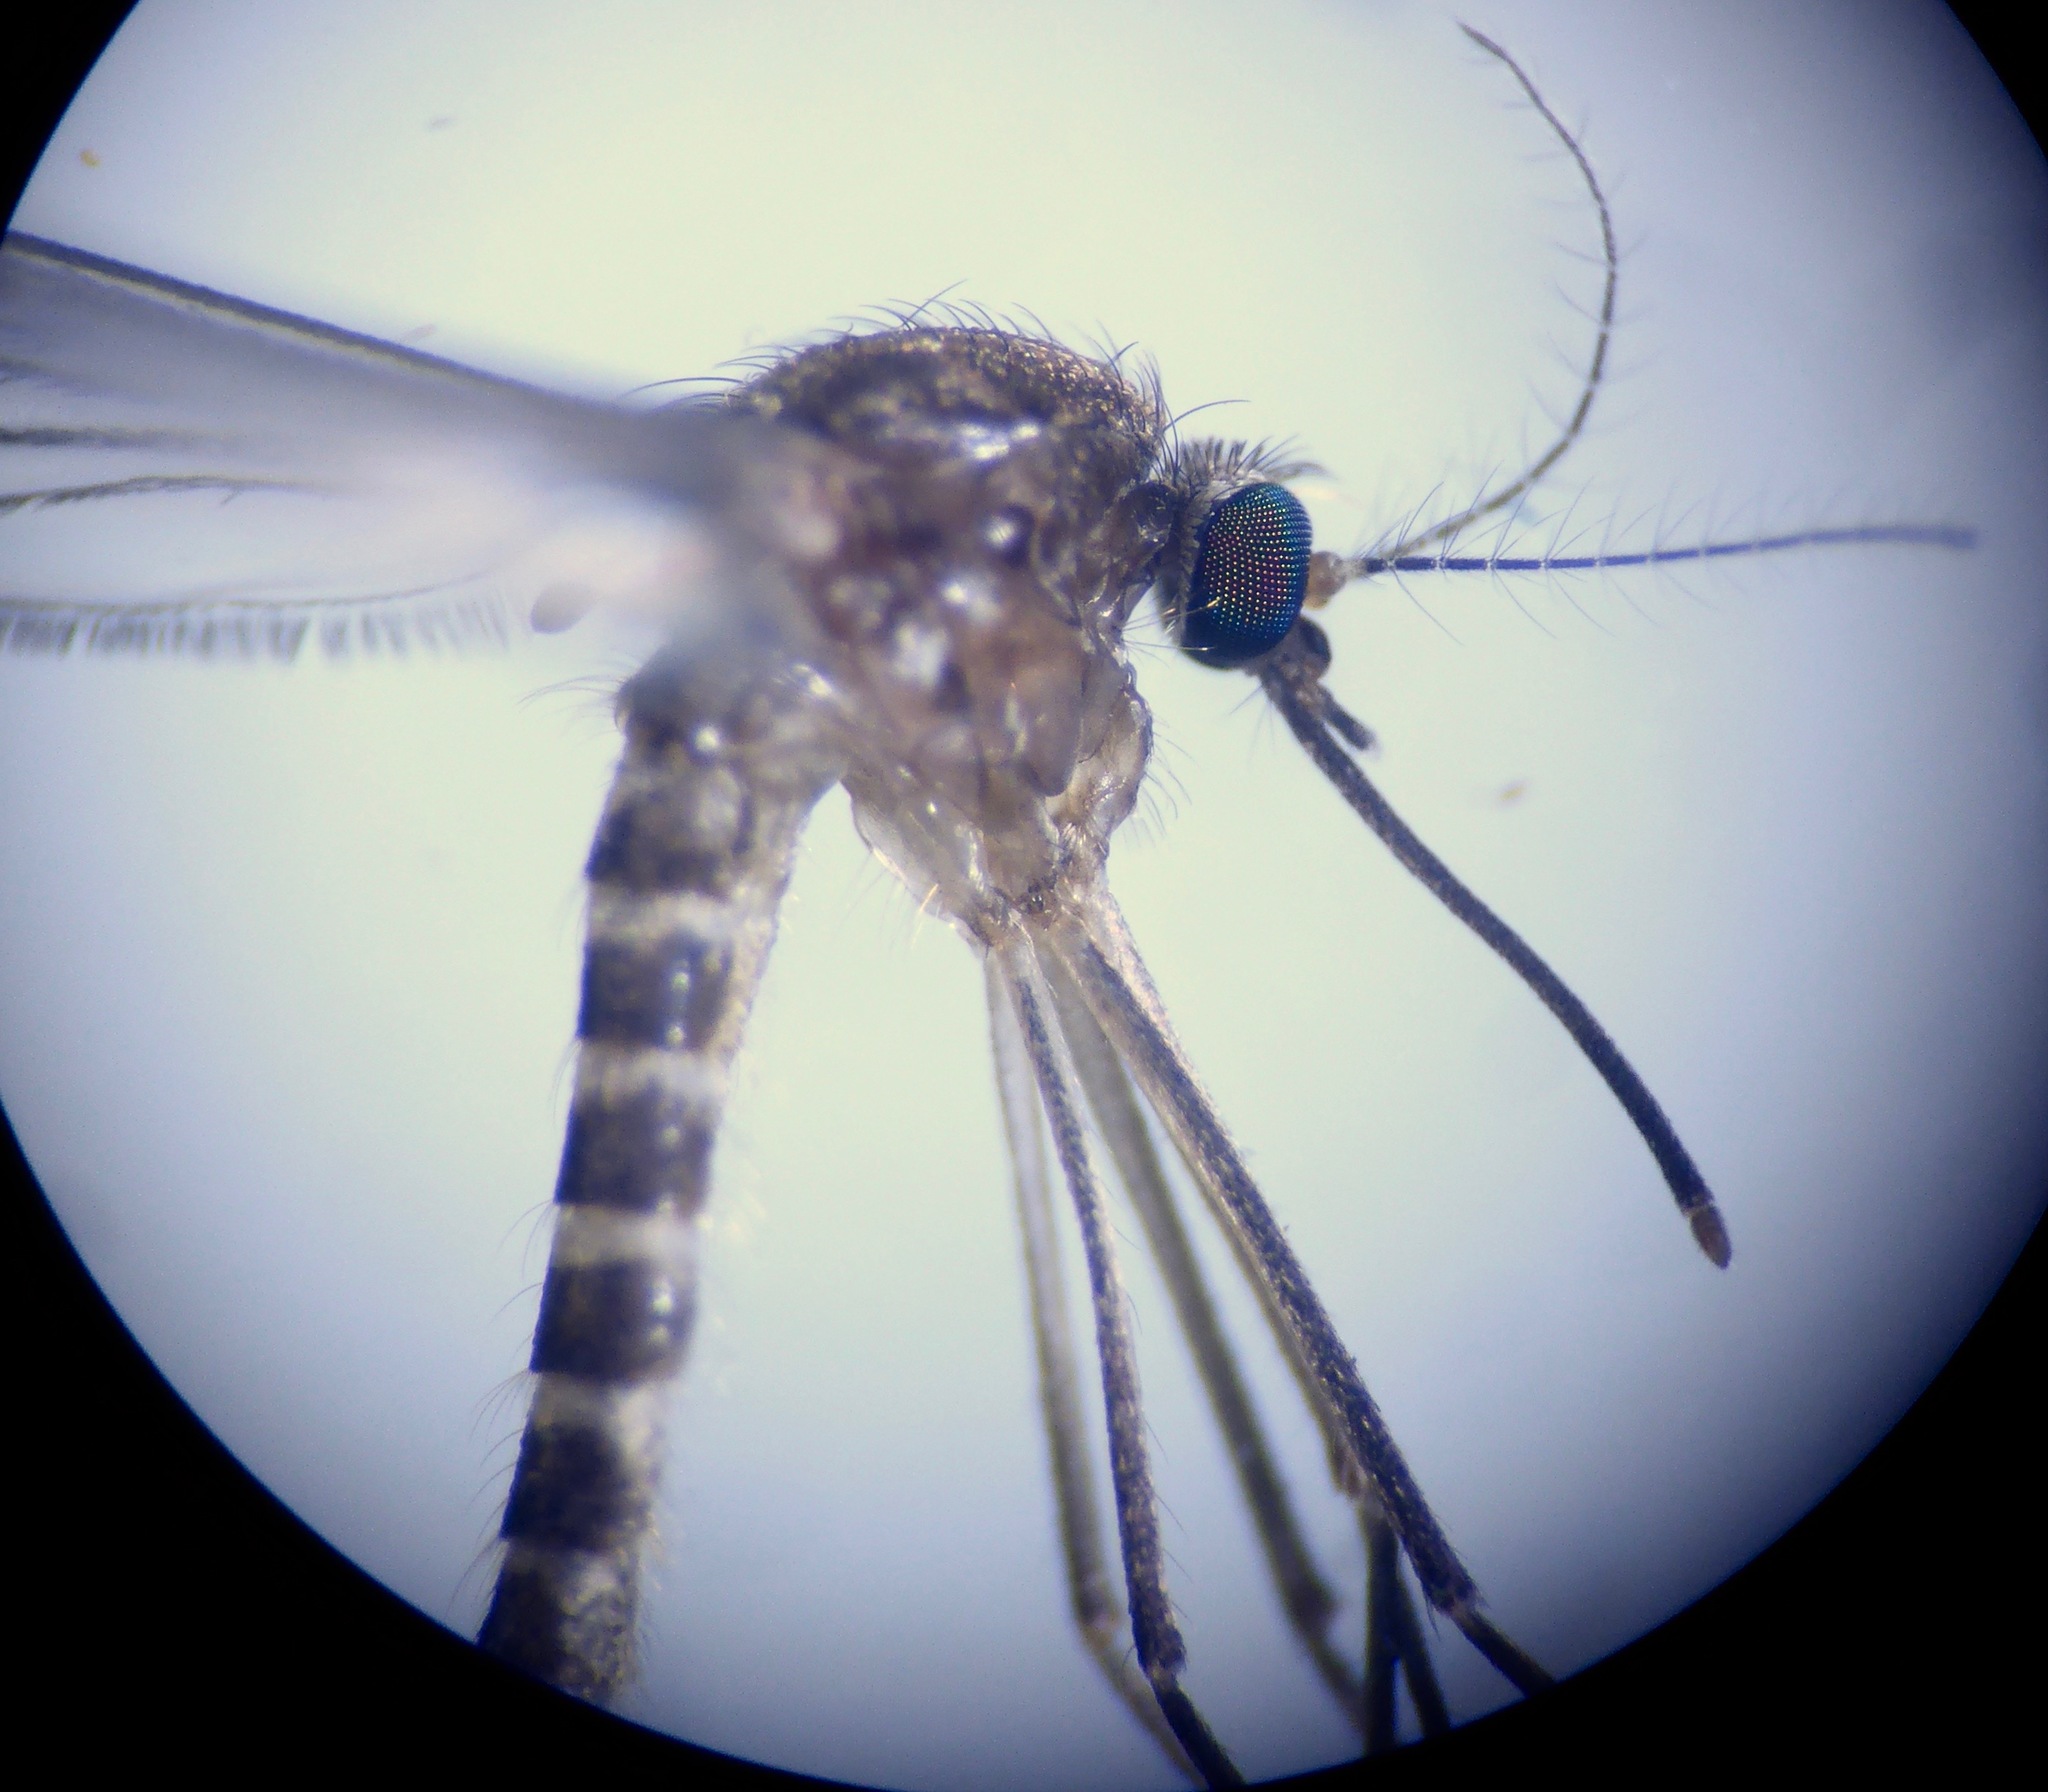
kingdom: Animalia
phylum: Arthropoda
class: Insecta
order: Diptera
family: Culicidae
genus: Culex
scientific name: Culex pervigilans
